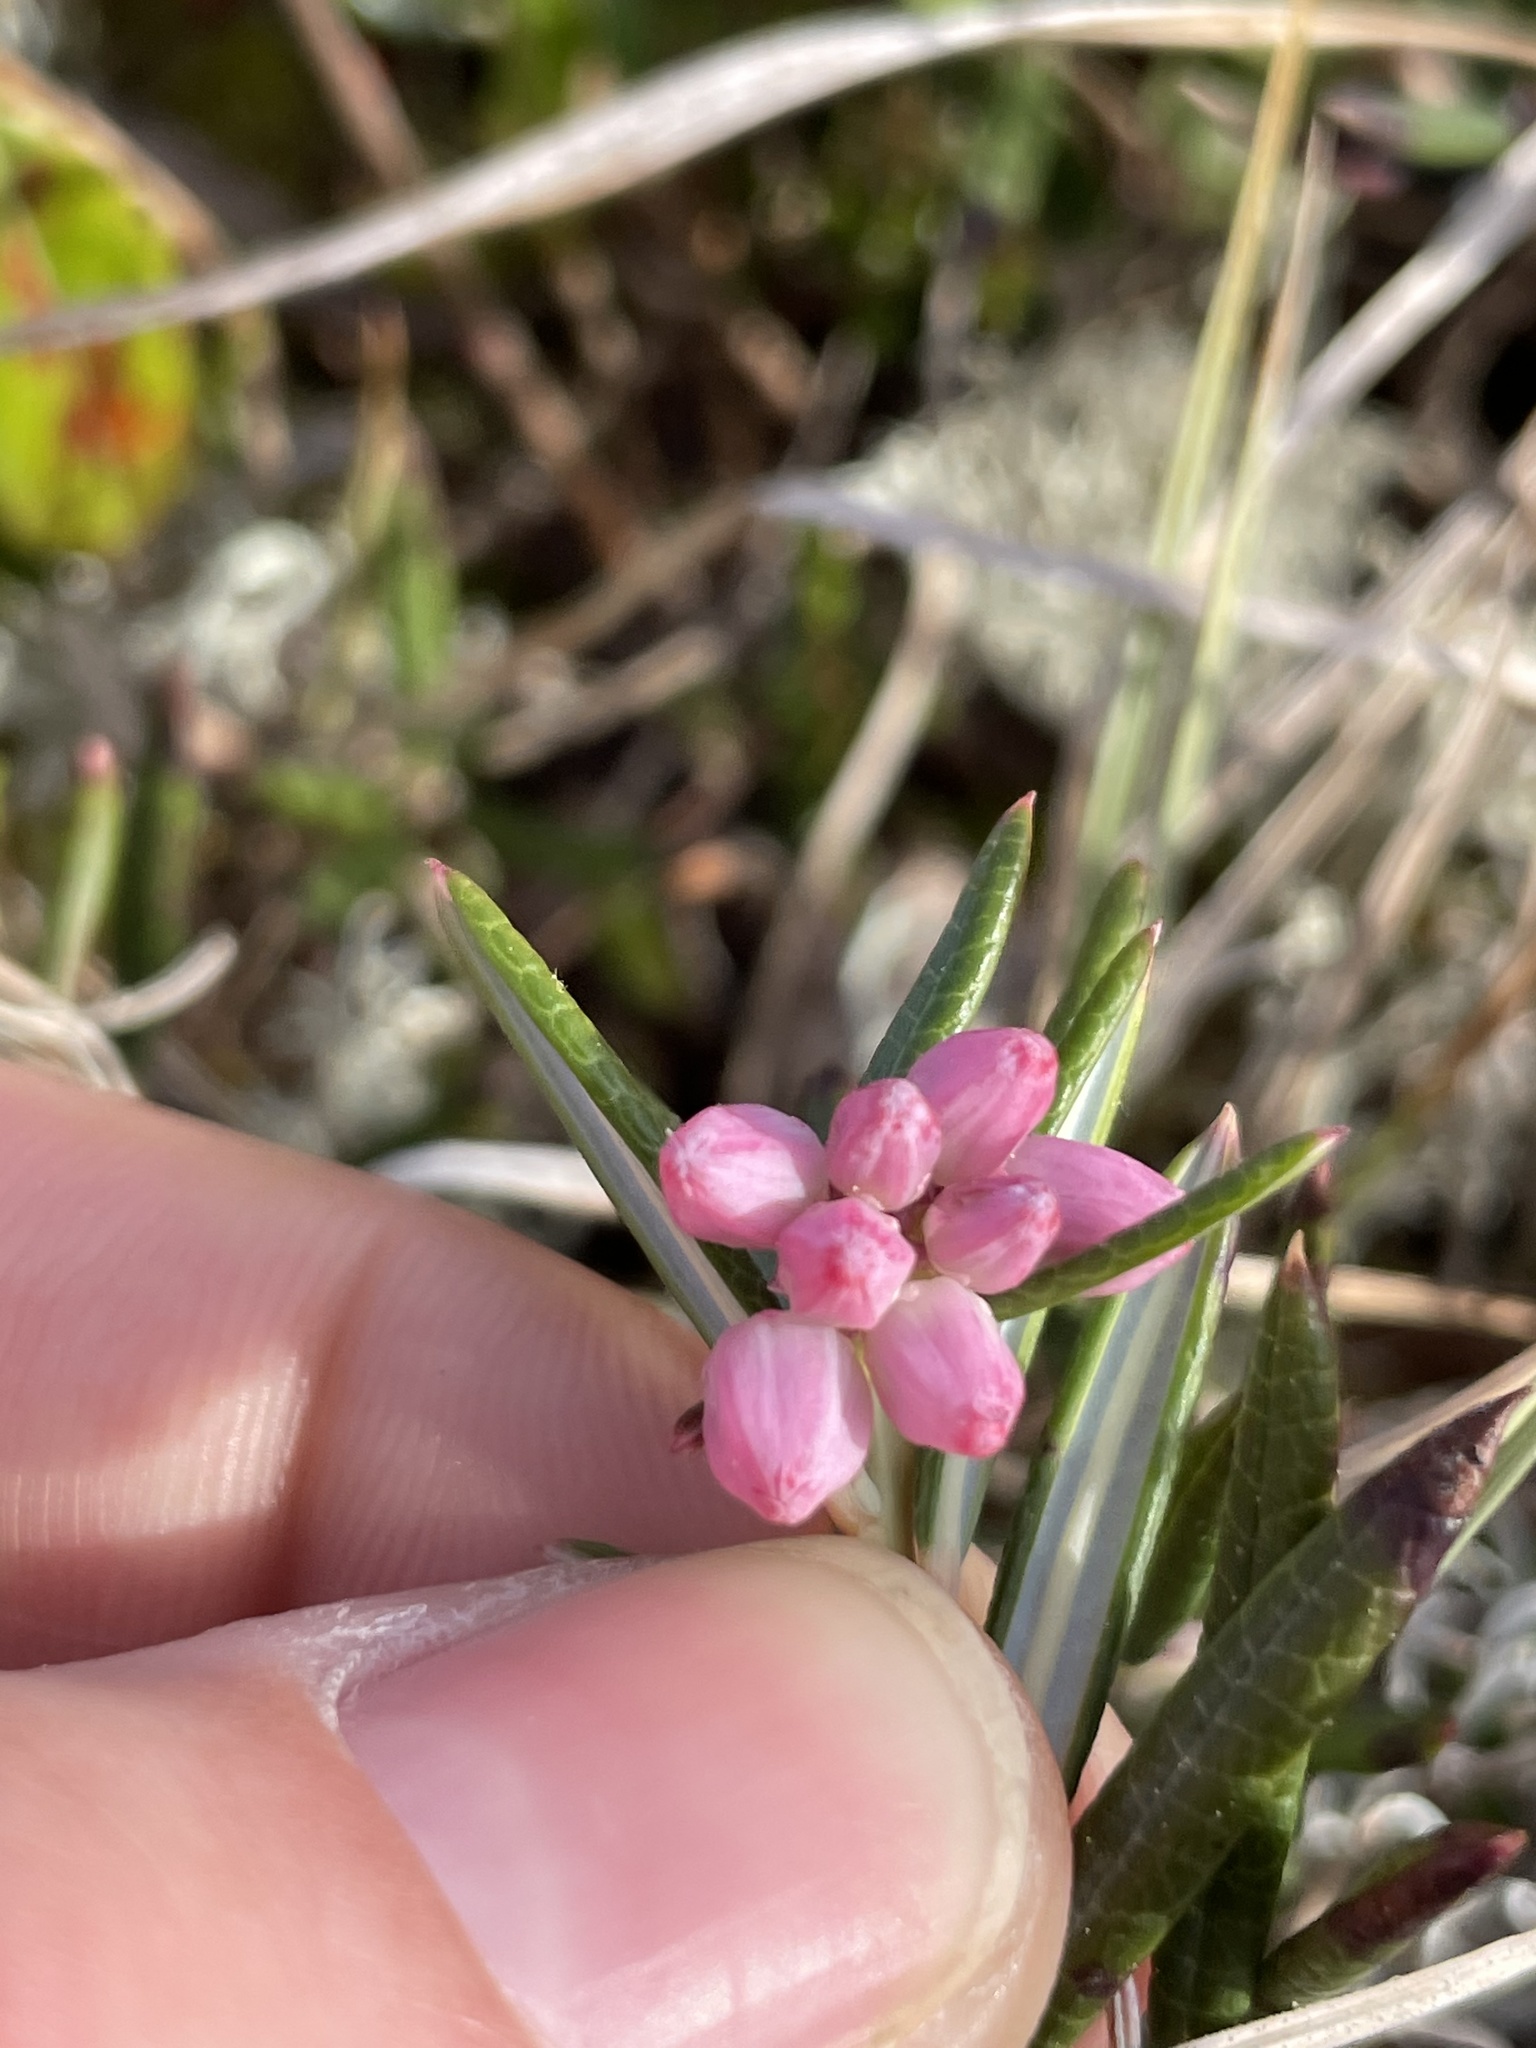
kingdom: Plantae
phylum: Tracheophyta
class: Magnoliopsida
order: Ericales
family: Ericaceae
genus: Andromeda
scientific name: Andromeda polifolia
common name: Bog-rosemary
